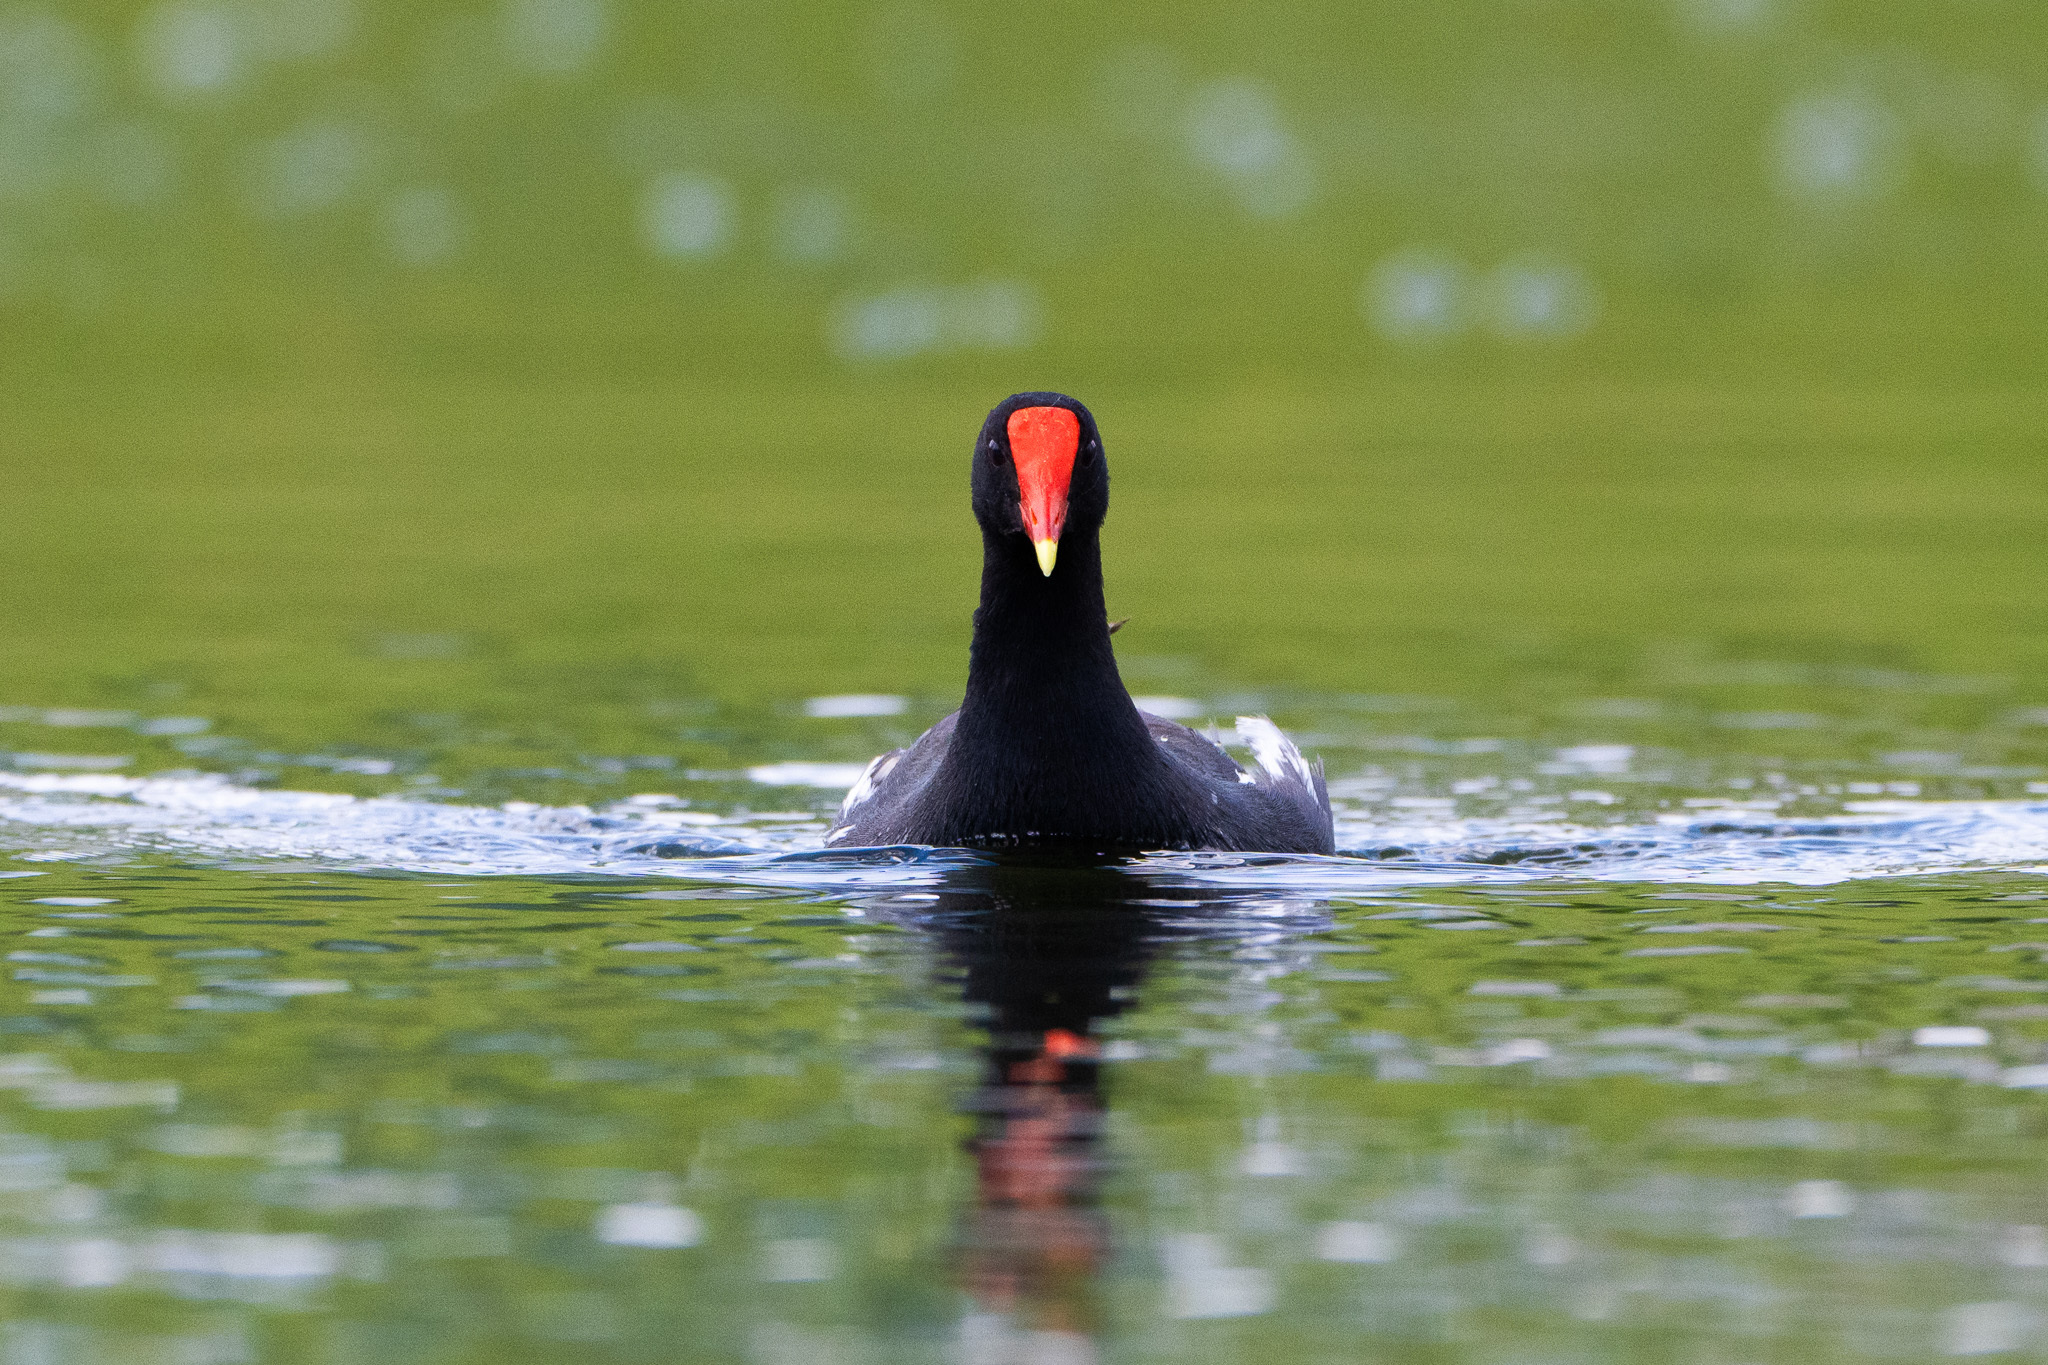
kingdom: Animalia
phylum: Chordata
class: Aves
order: Gruiformes
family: Rallidae
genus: Gallinula
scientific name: Gallinula chloropus
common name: Common moorhen
